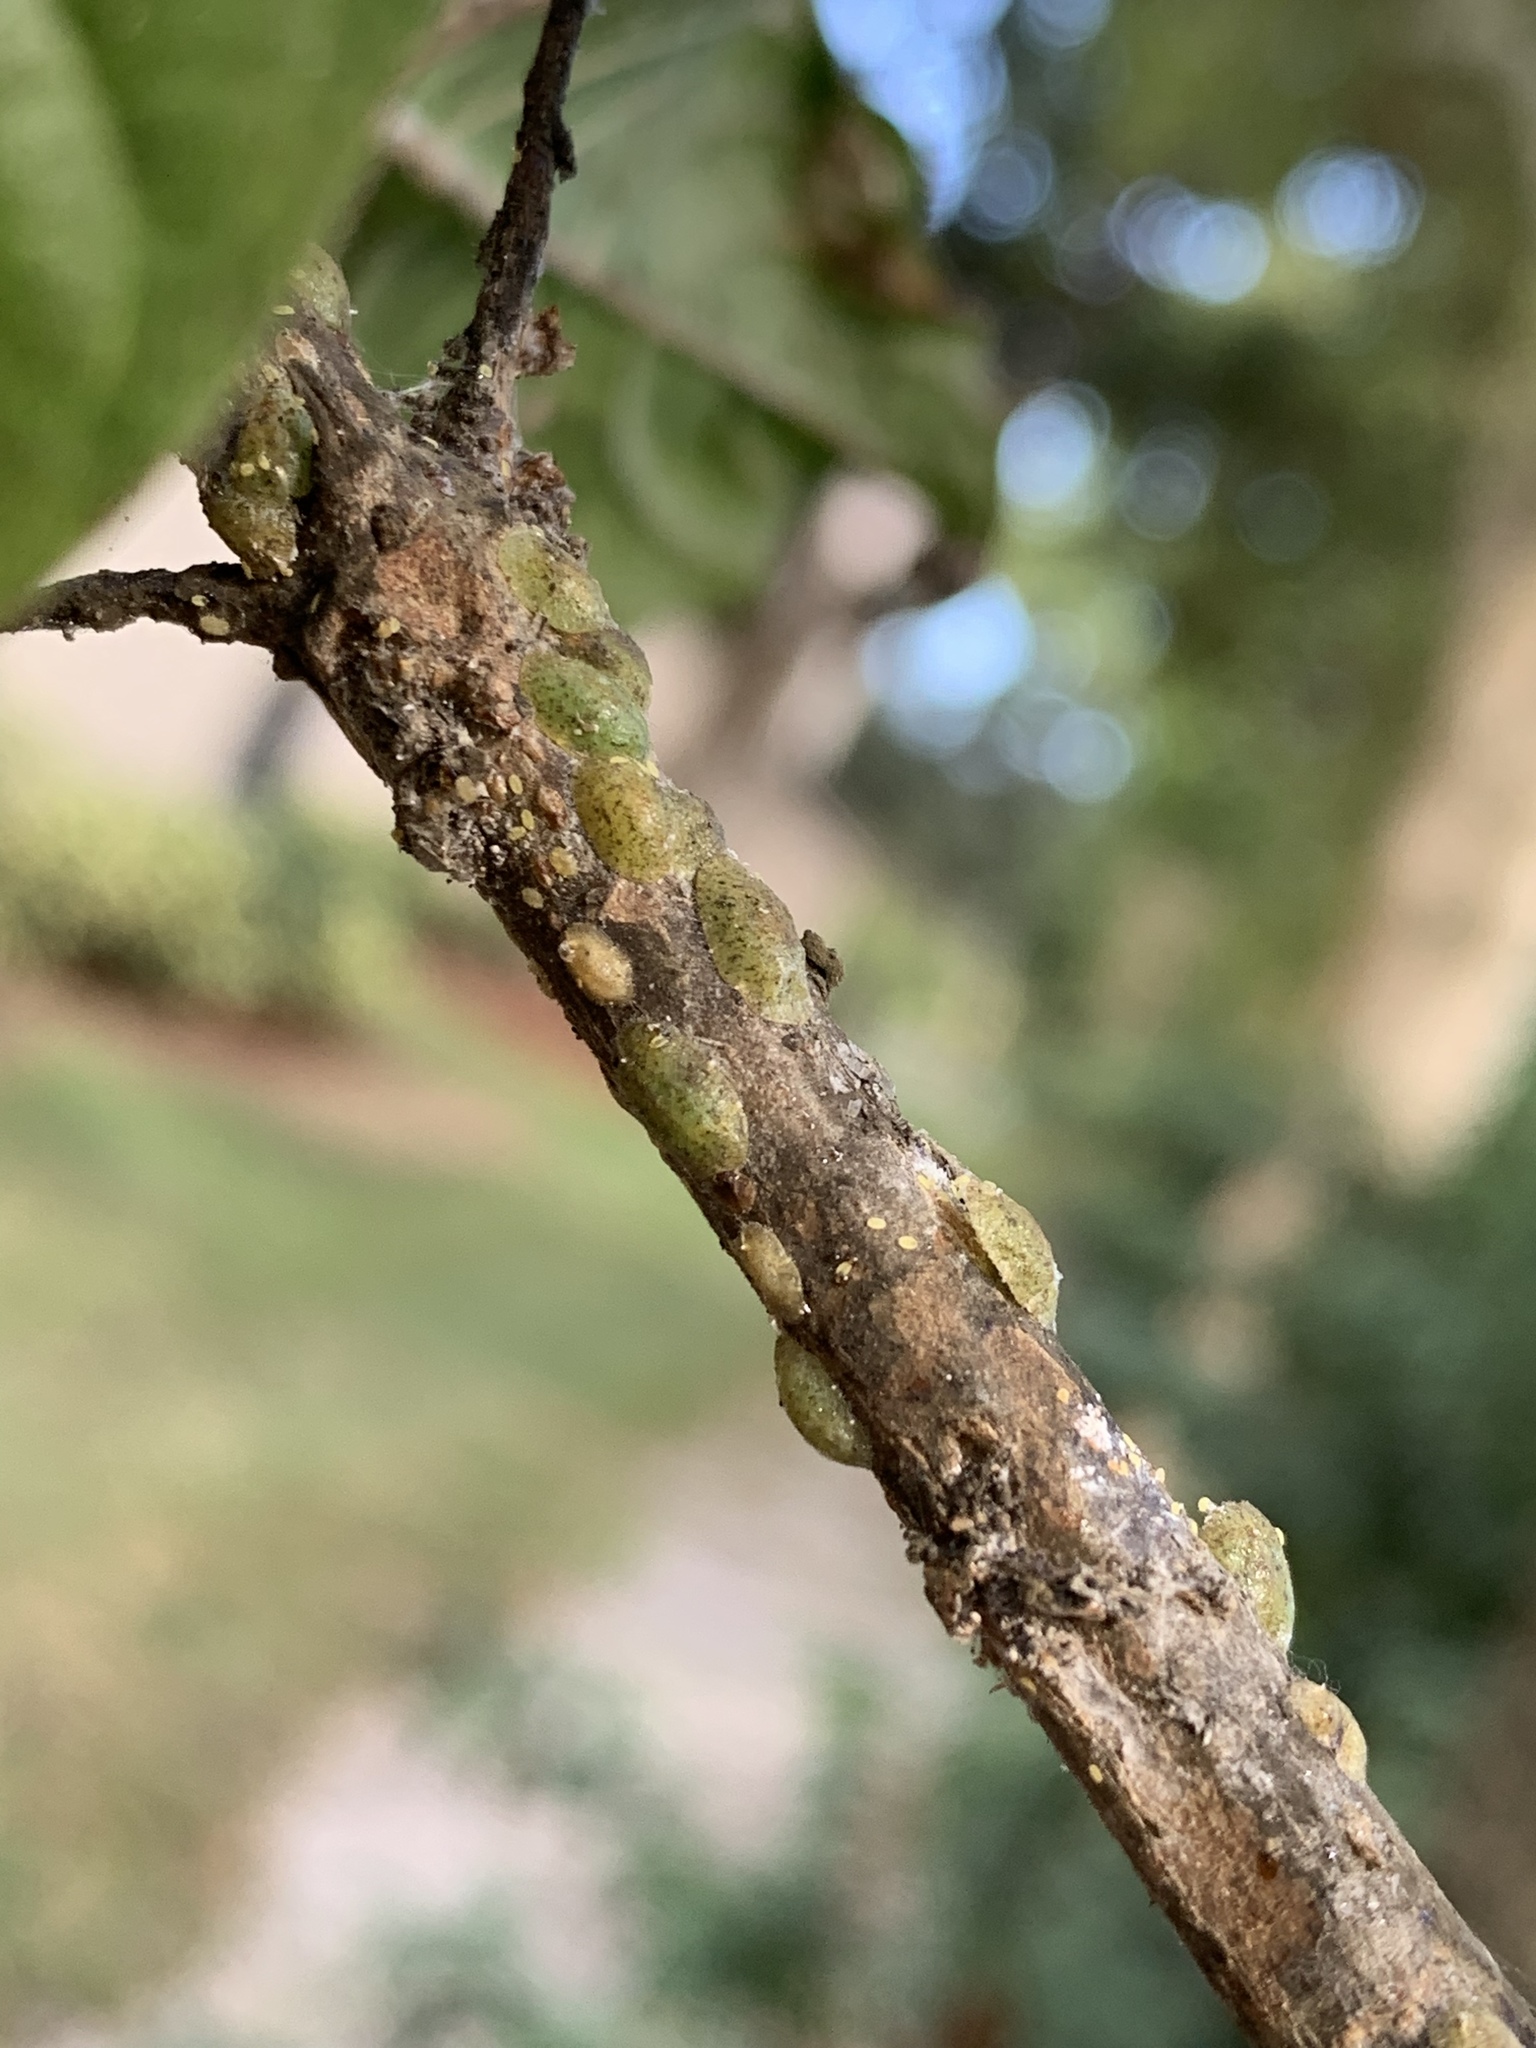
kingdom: Animalia
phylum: Arthropoda
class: Insecta
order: Hemiptera
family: Coccidae
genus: Phalacrococcus
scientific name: Phalacrococcus howertoni
